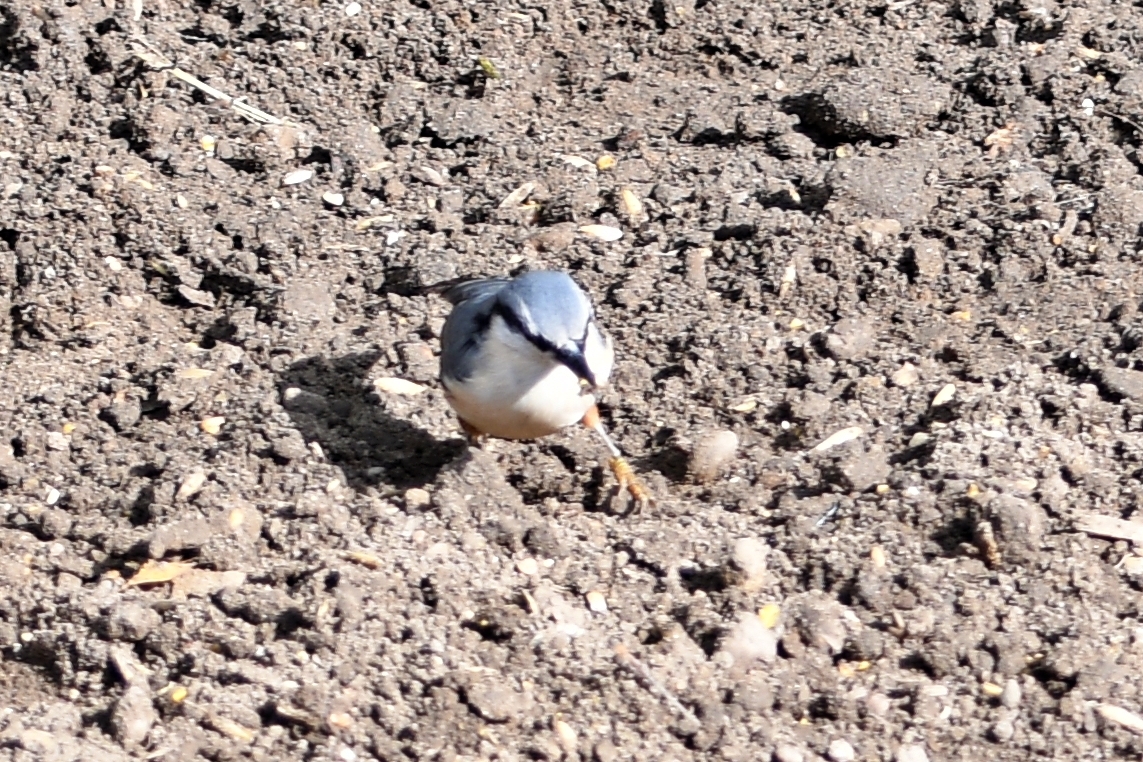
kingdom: Animalia
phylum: Chordata
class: Aves
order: Passeriformes
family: Sittidae
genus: Sitta
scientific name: Sitta europaea
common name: Eurasian nuthatch
